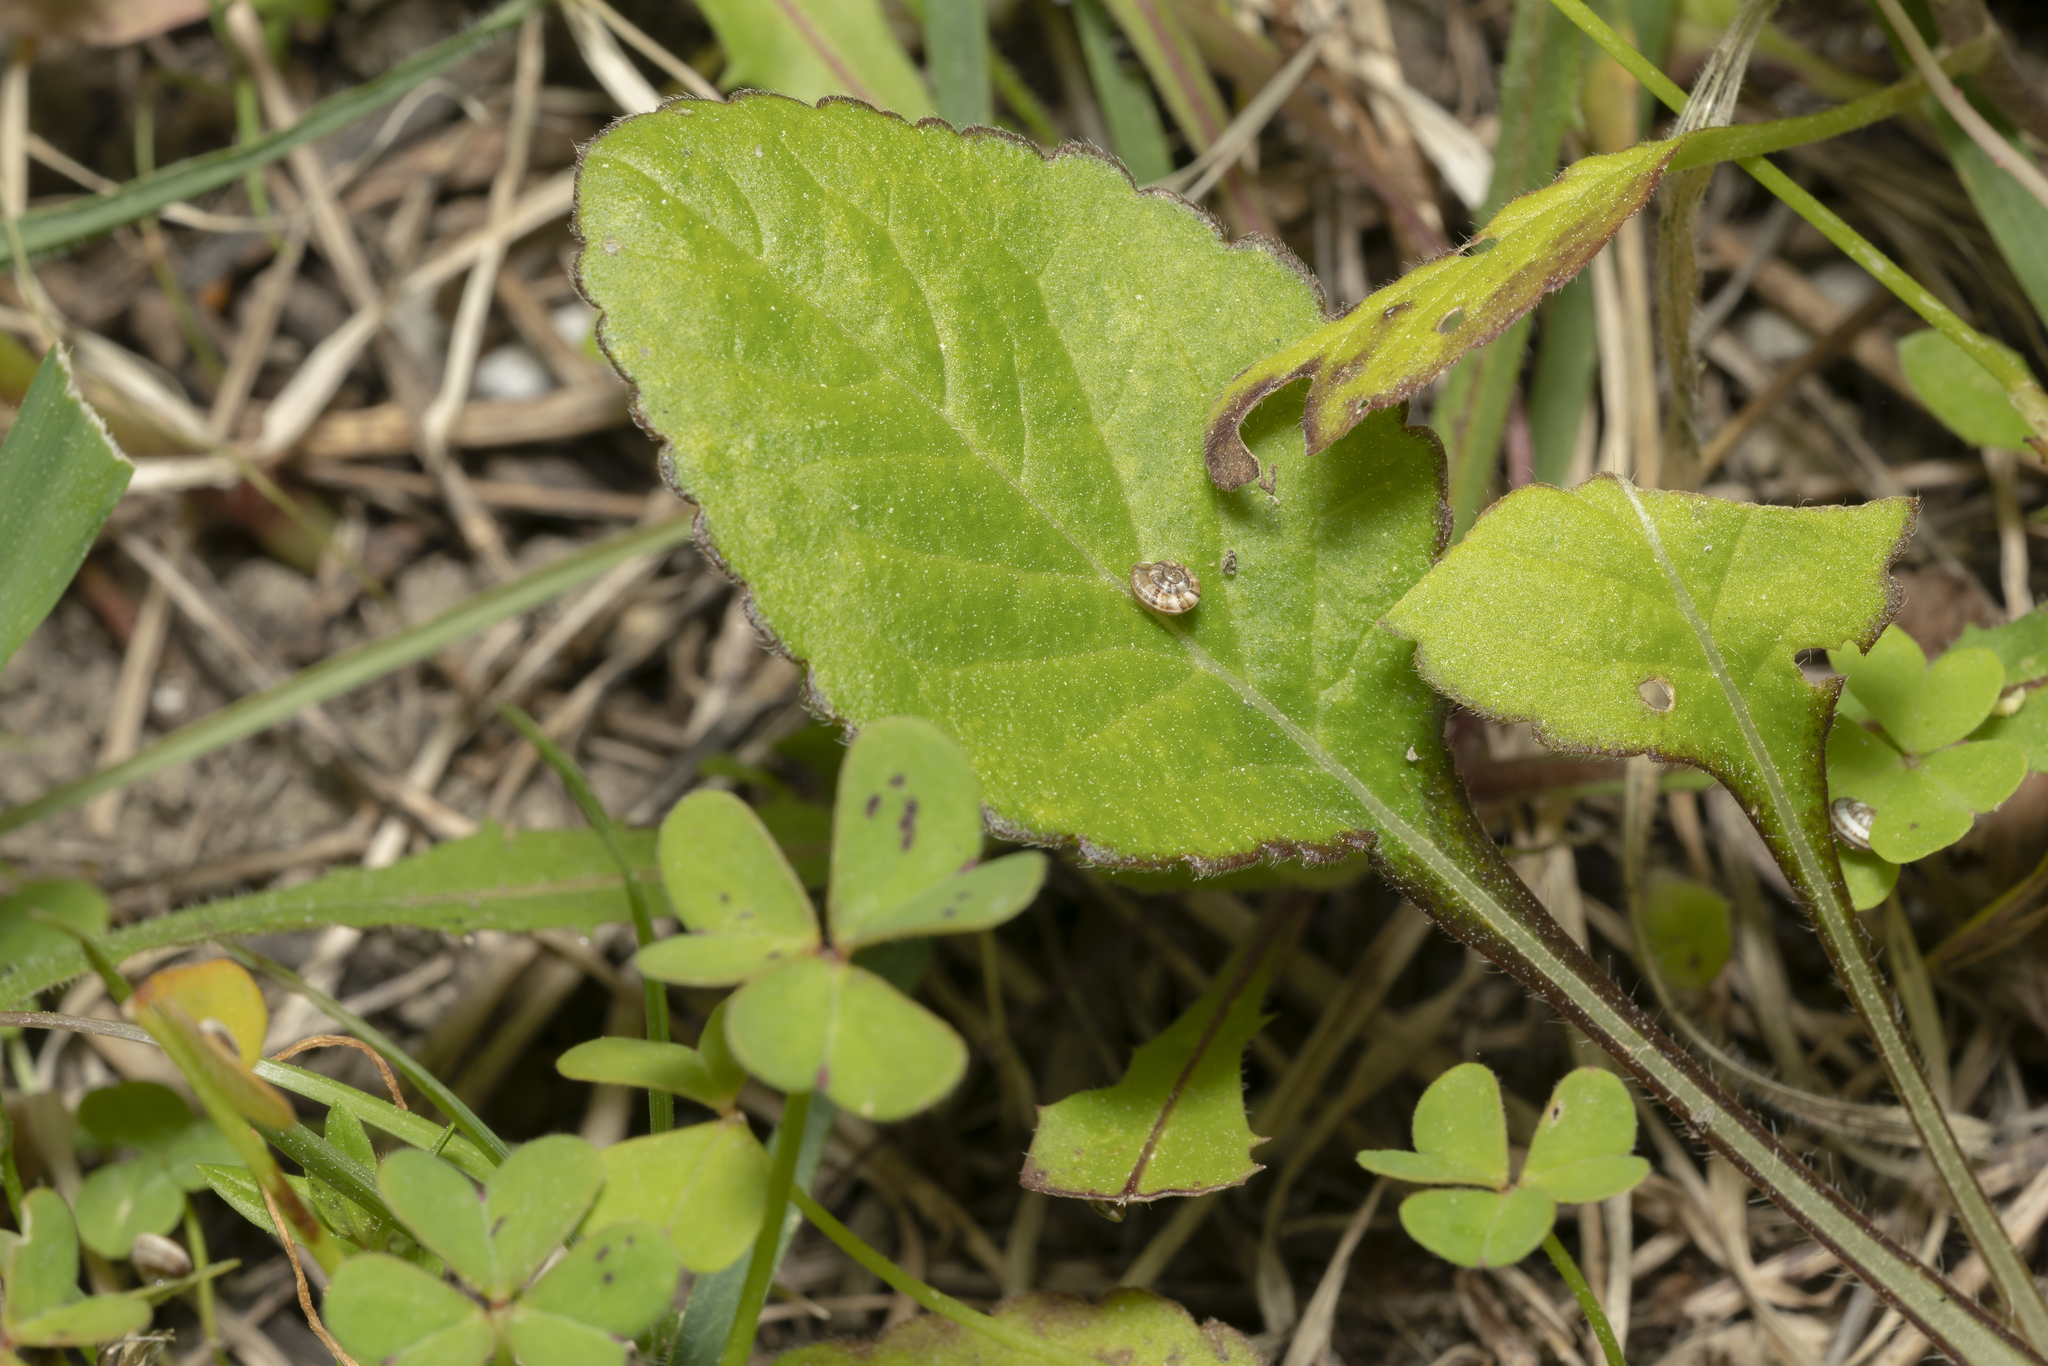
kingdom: Plantae
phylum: Tracheophyta
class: Magnoliopsida
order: Dipsacales
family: Caprifoliaceae
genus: Knautia
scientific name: Knautia integrifolia
